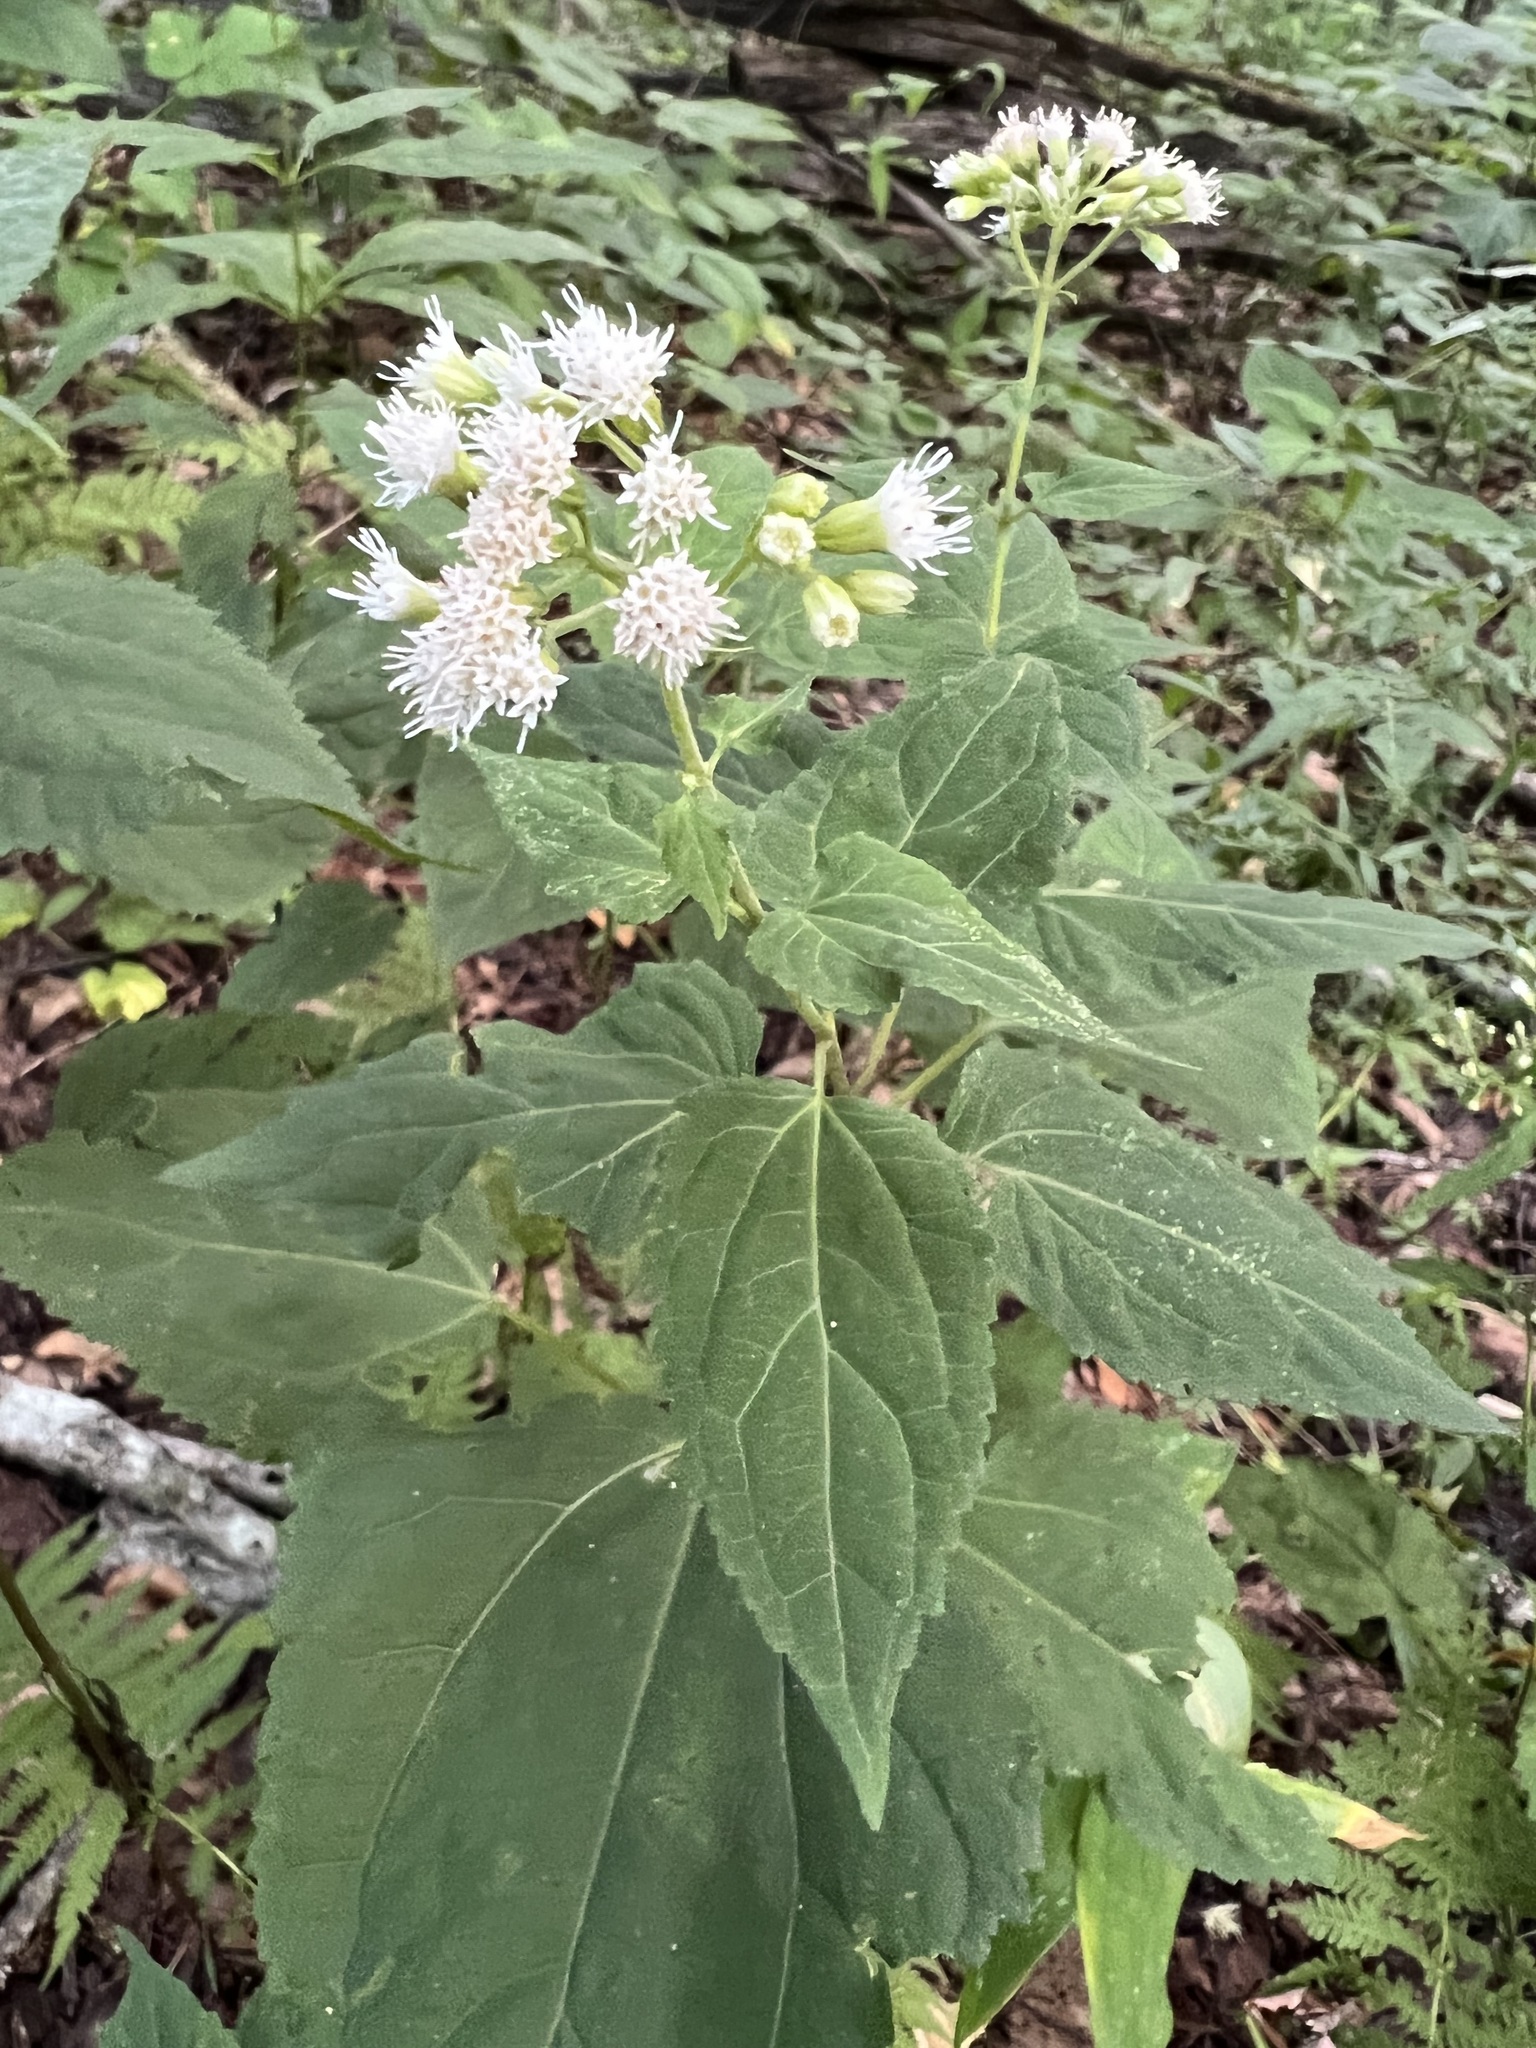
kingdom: Plantae
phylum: Tracheophyta
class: Magnoliopsida
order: Asterales
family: Asteraceae
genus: Ageratina
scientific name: Ageratina roanensis
